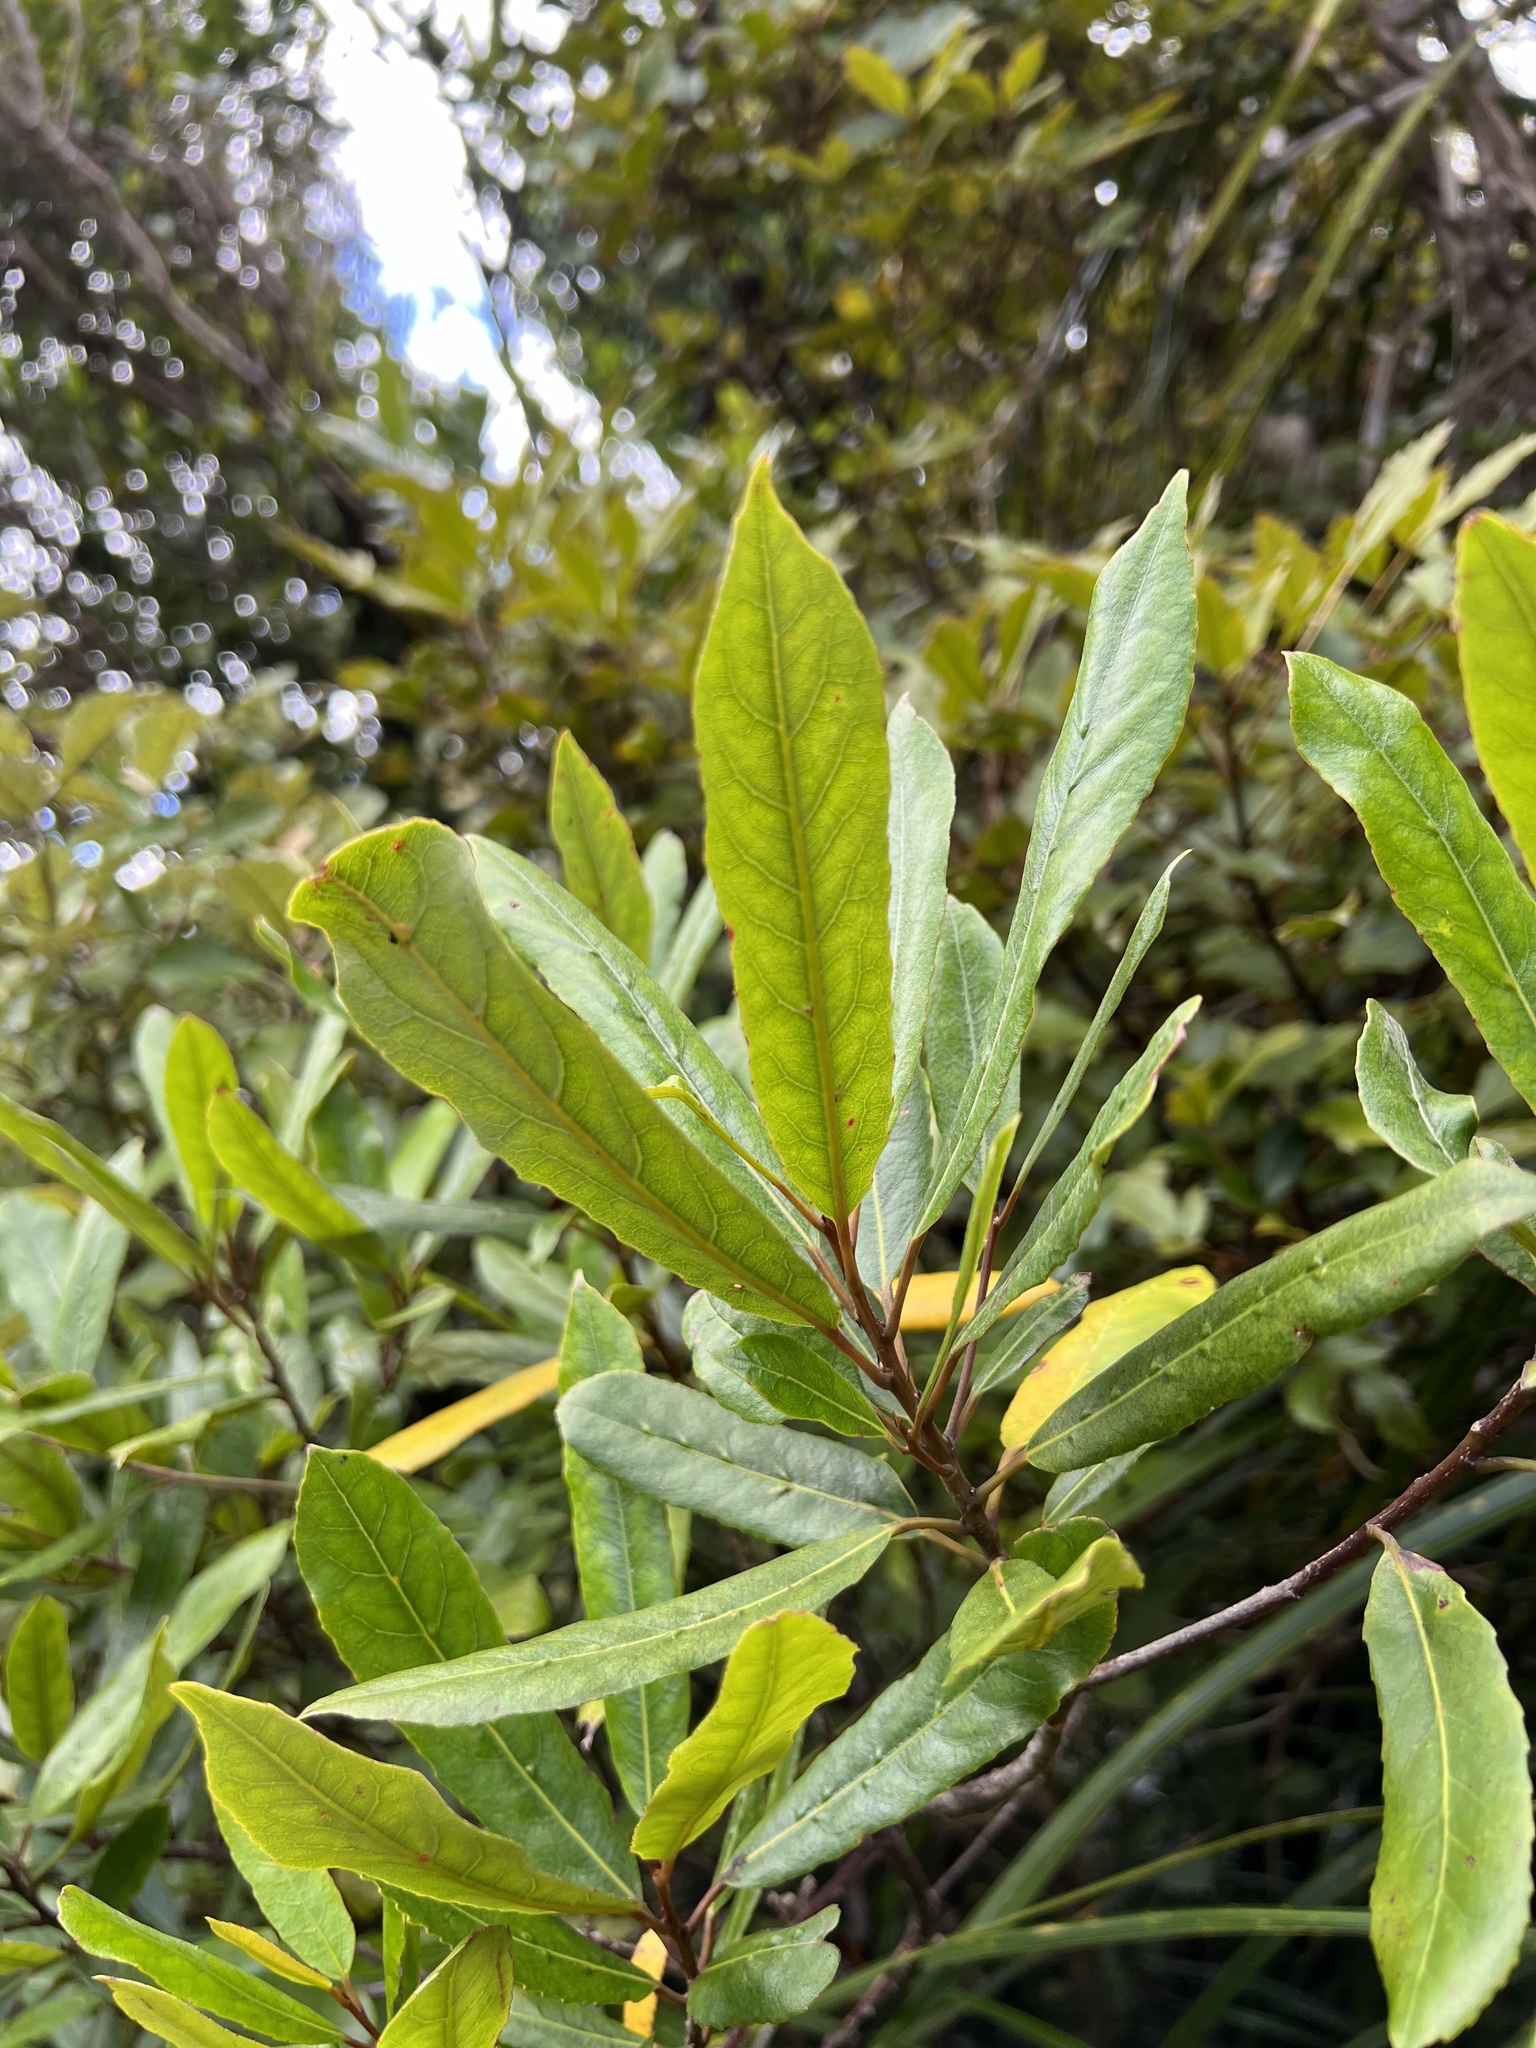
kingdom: Plantae
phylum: Tracheophyta
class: Magnoliopsida
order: Oxalidales
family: Elaeocarpaceae
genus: Elaeocarpus
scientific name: Elaeocarpus dentatus
